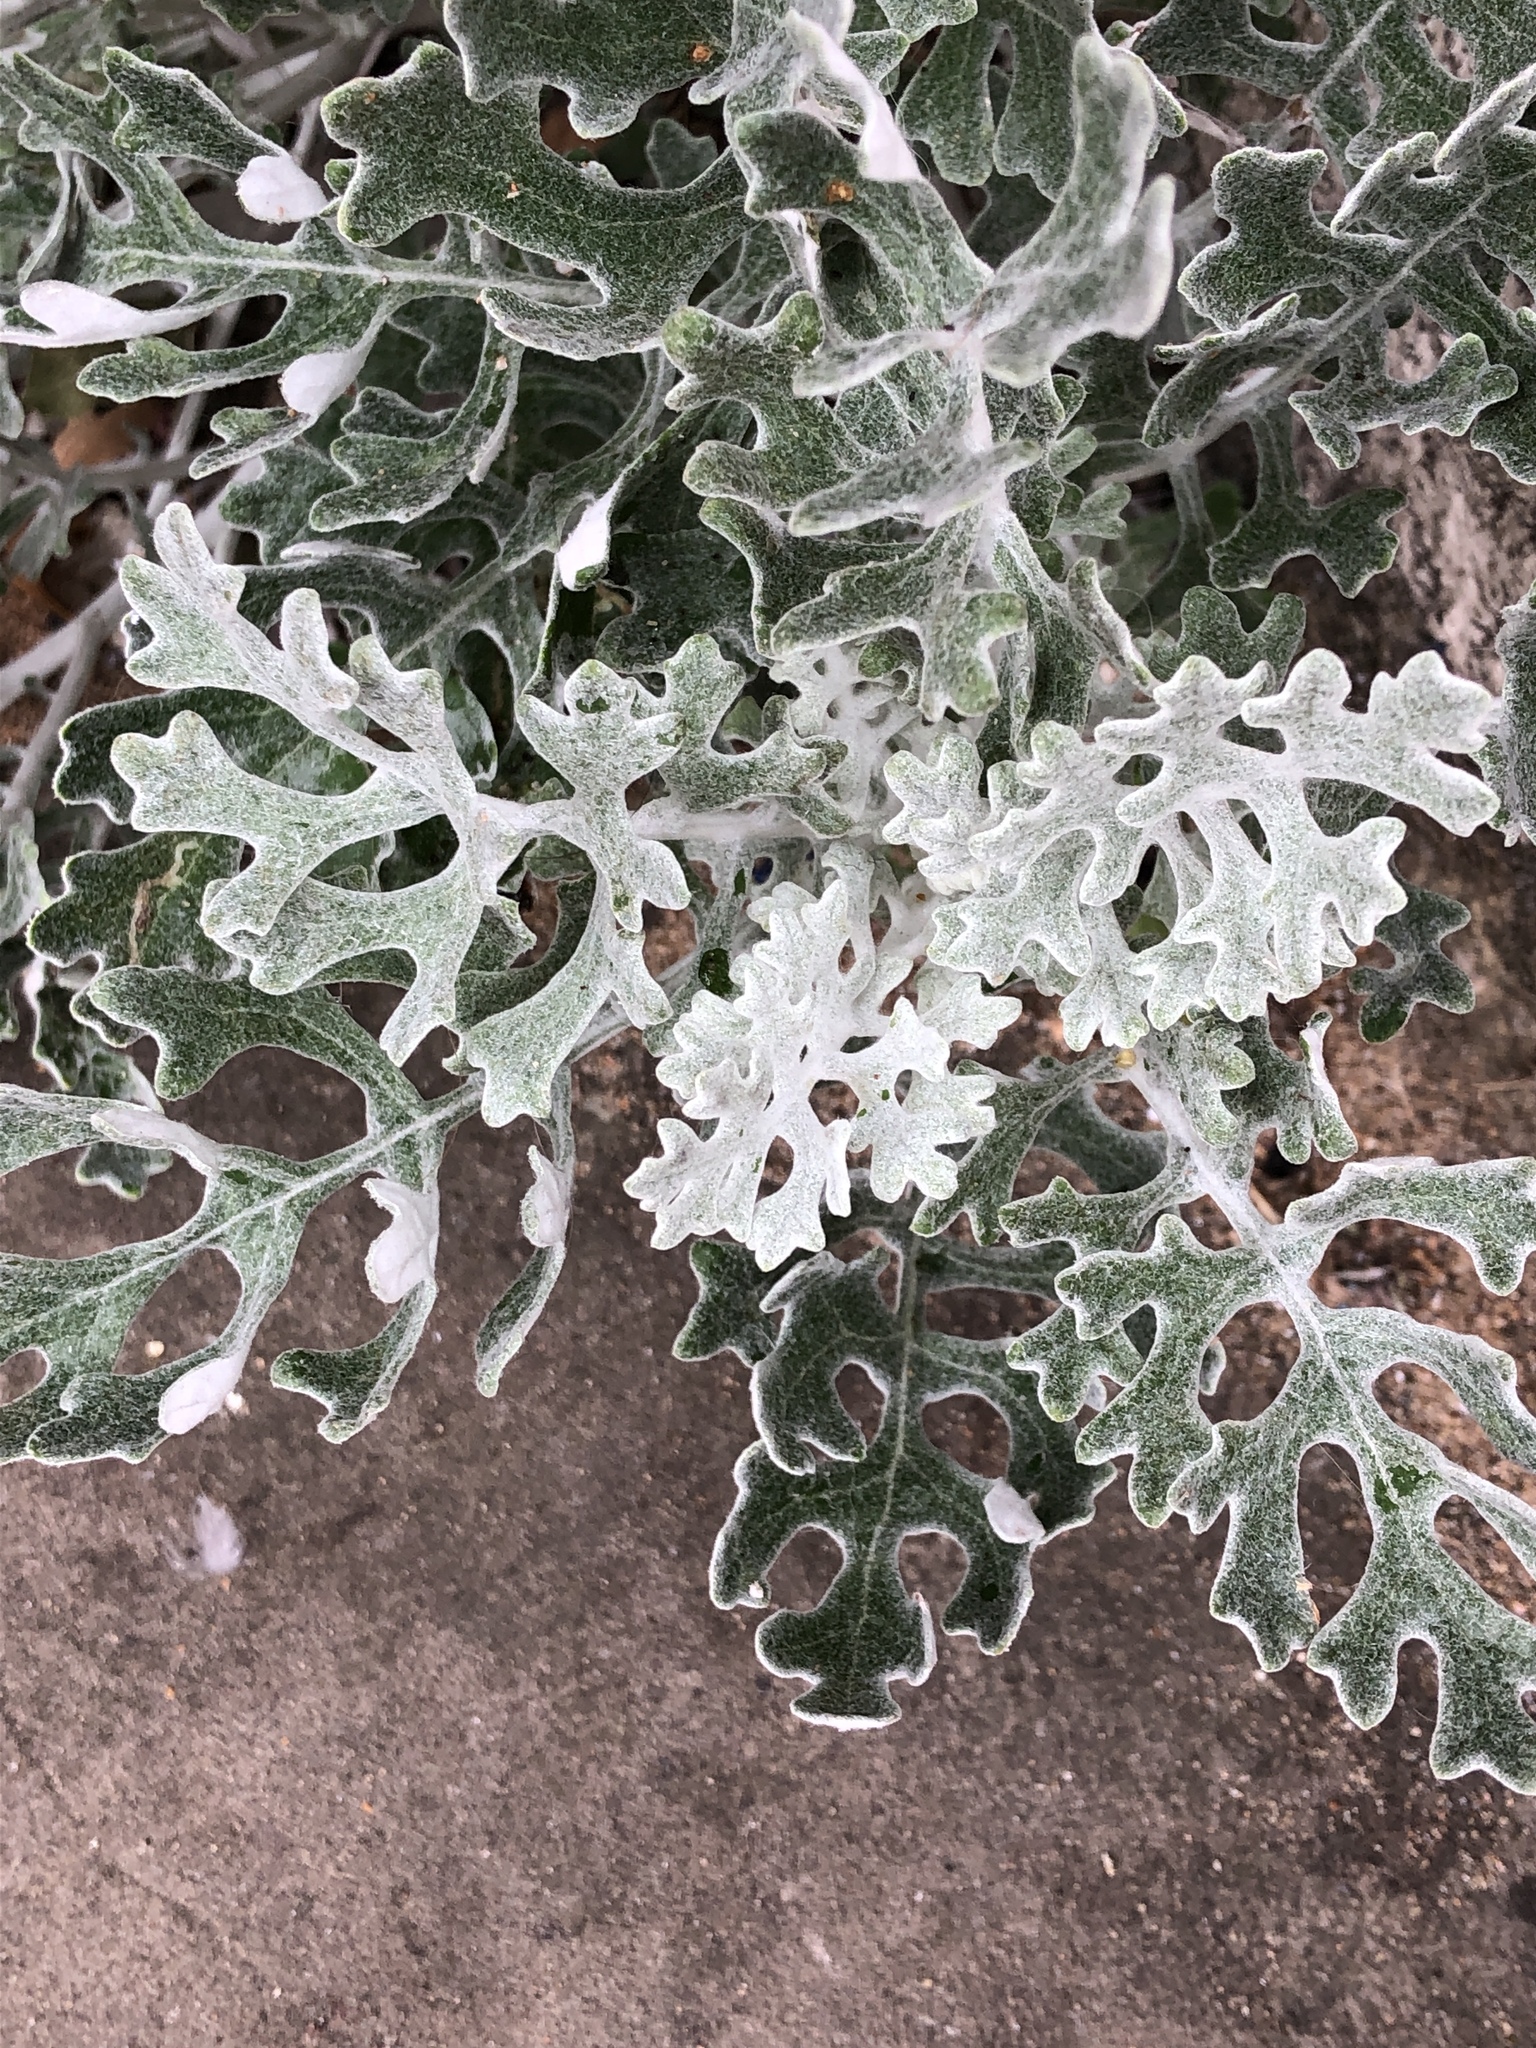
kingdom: Plantae
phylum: Tracheophyta
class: Magnoliopsida
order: Asterales
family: Asteraceae
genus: Jacobaea
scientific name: Jacobaea maritima
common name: Silver ragwort
